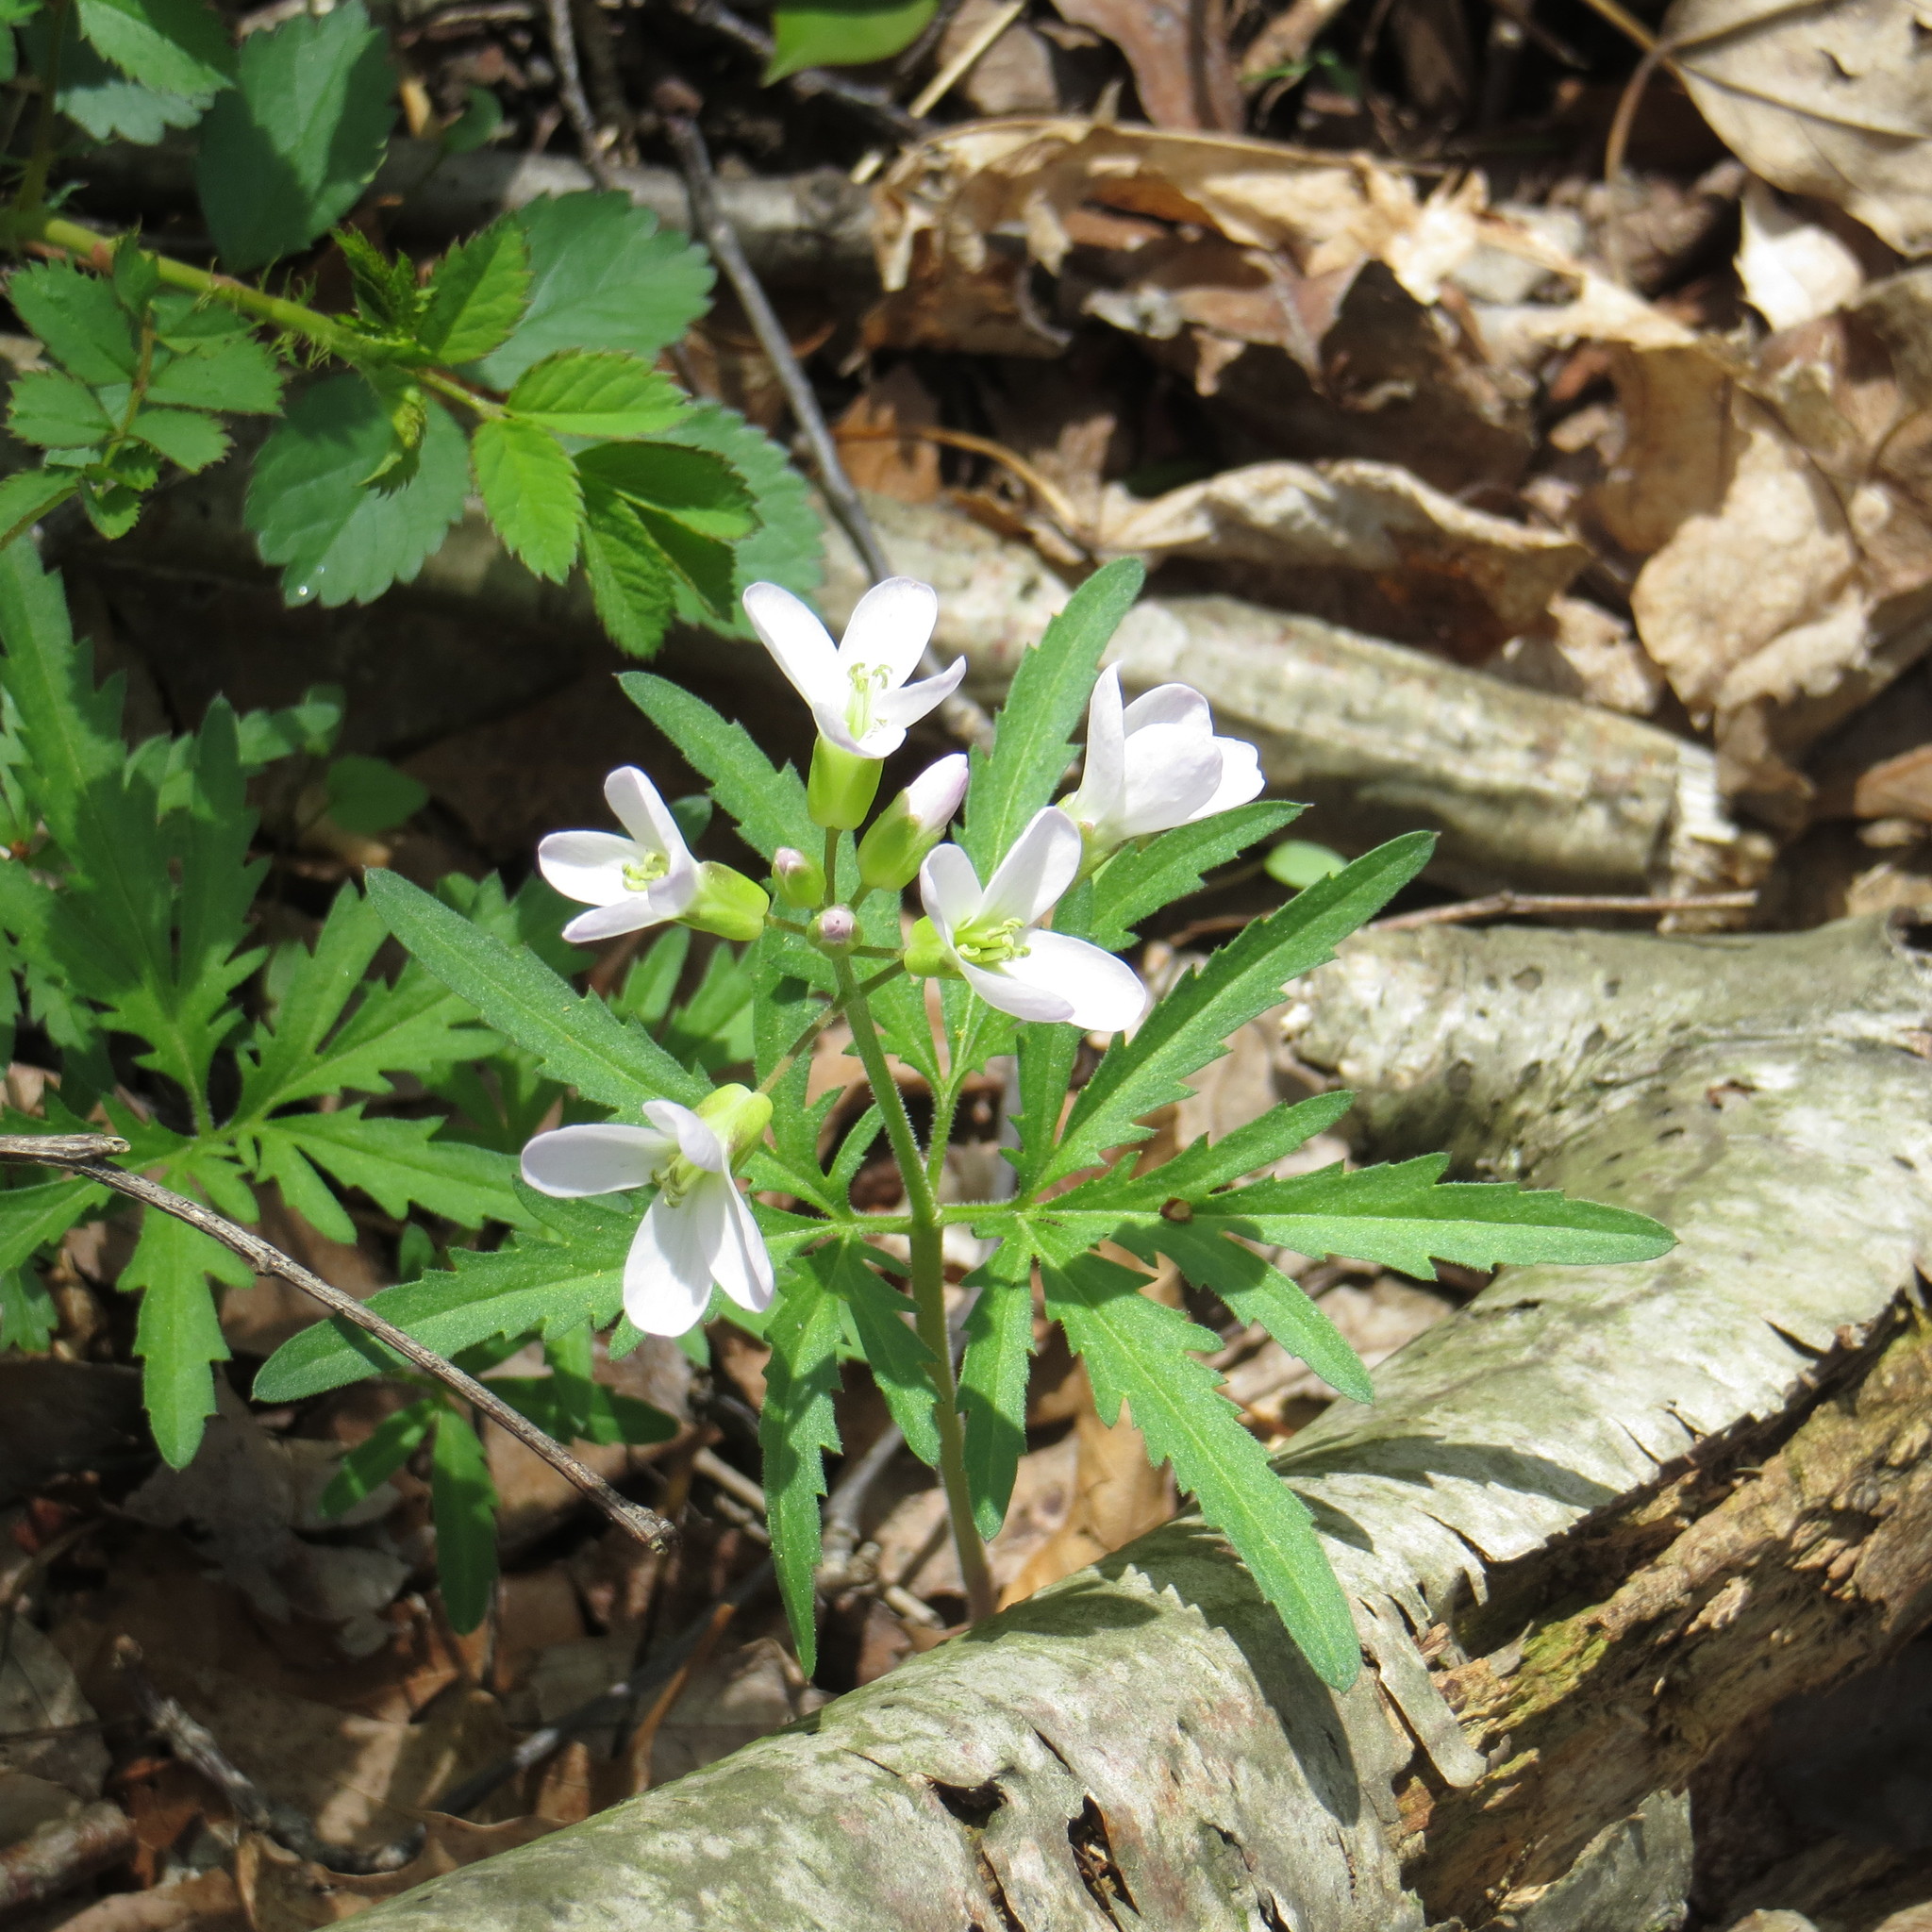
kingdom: Plantae
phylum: Tracheophyta
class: Magnoliopsida
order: Brassicales
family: Brassicaceae
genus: Cardamine
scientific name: Cardamine concatenata
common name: Cut-leaf toothcup
